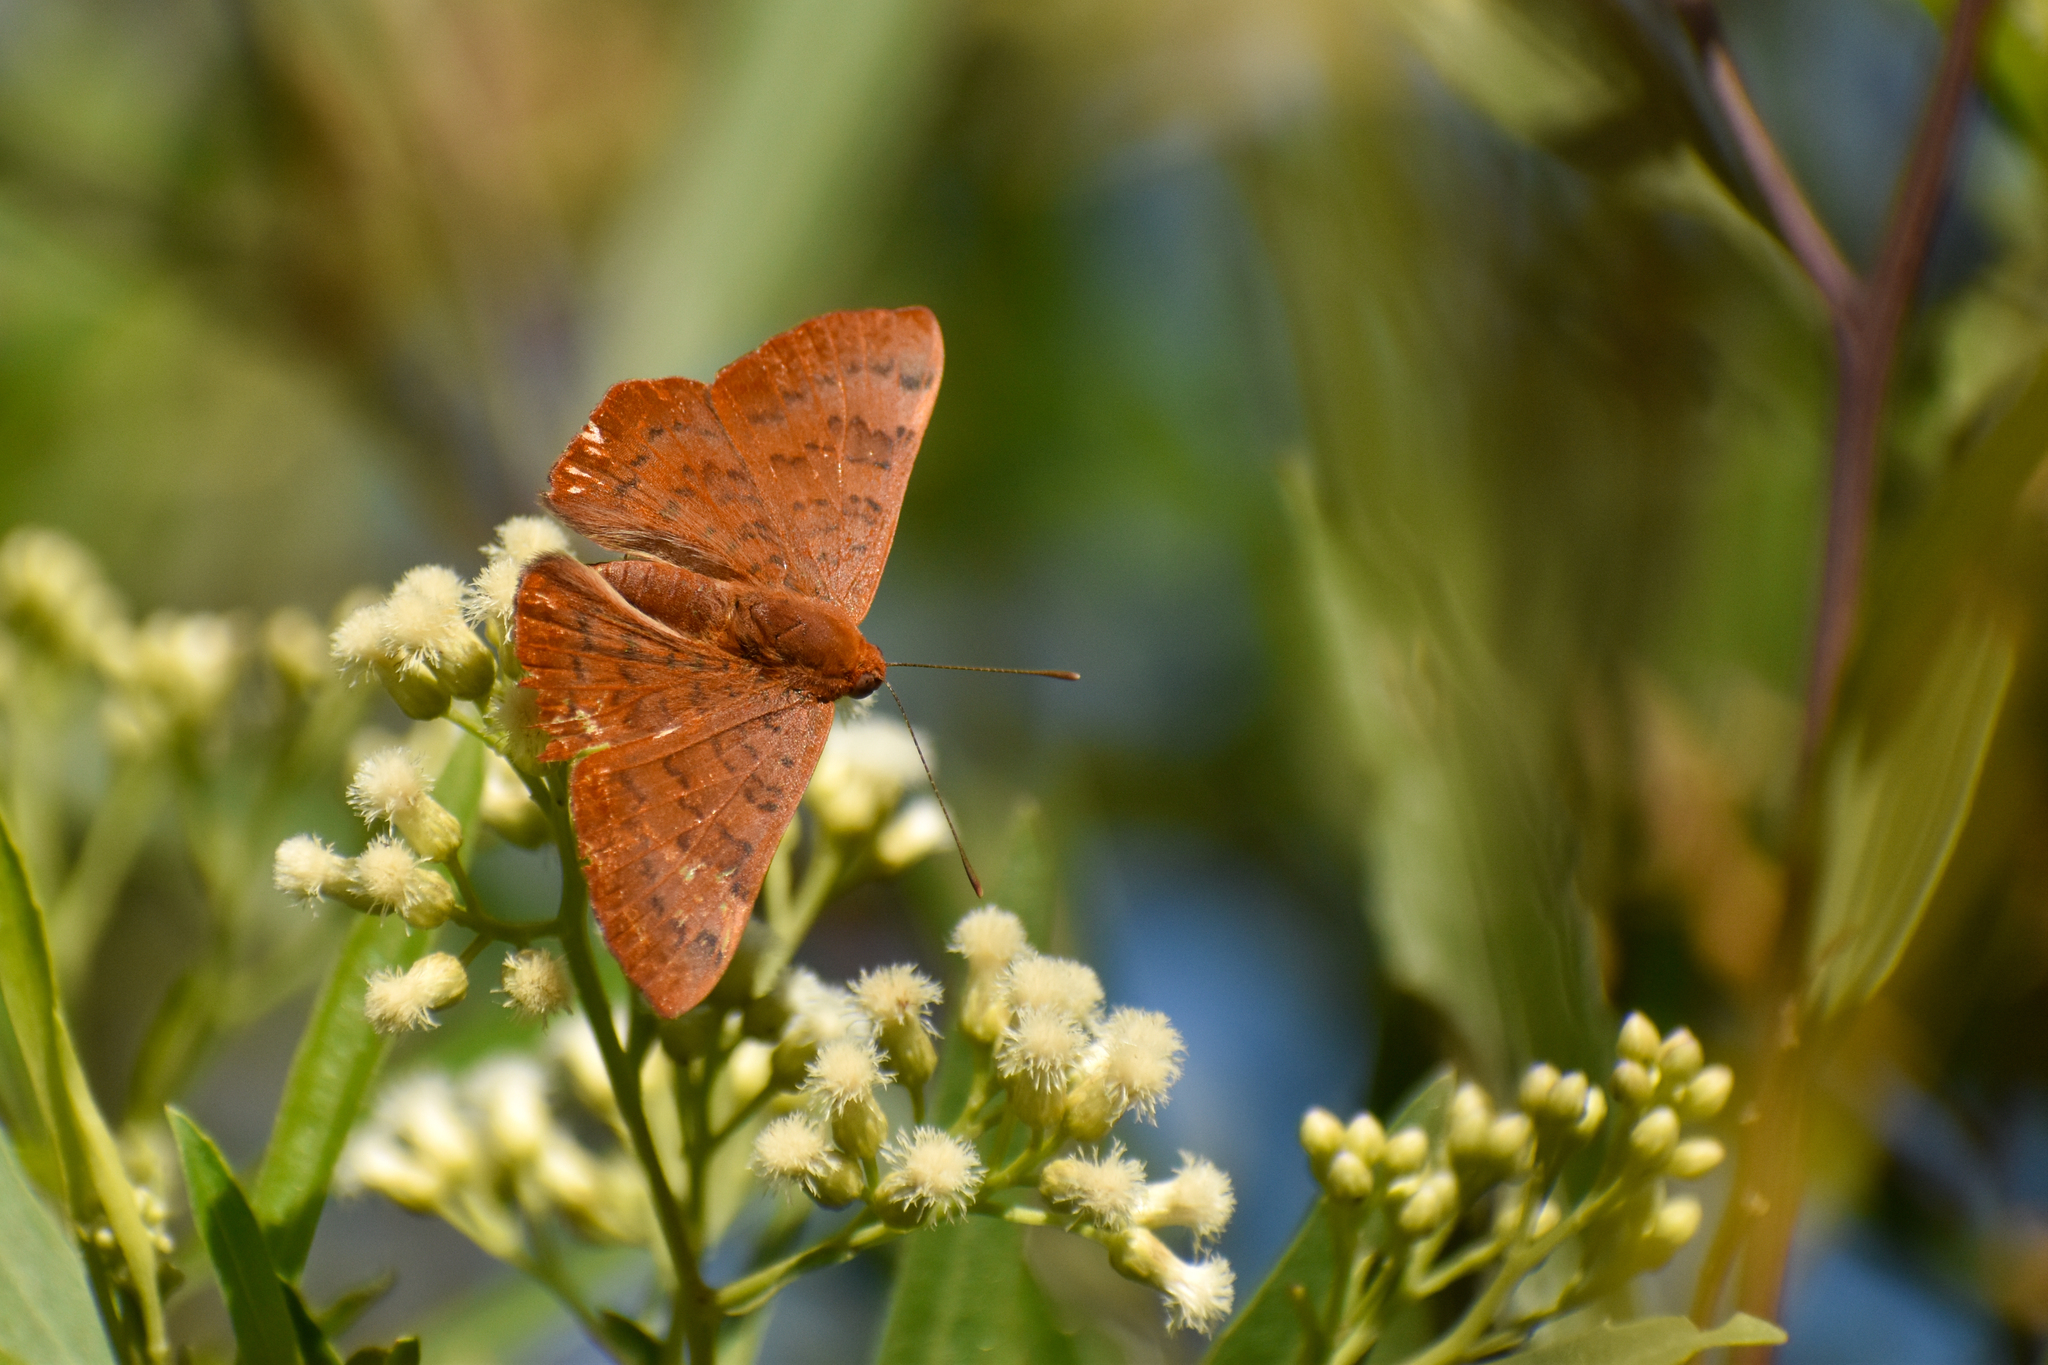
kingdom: Animalia
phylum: Arthropoda
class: Insecta
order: Lepidoptera
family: Lycaenidae
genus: Emesis
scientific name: Emesis russula
